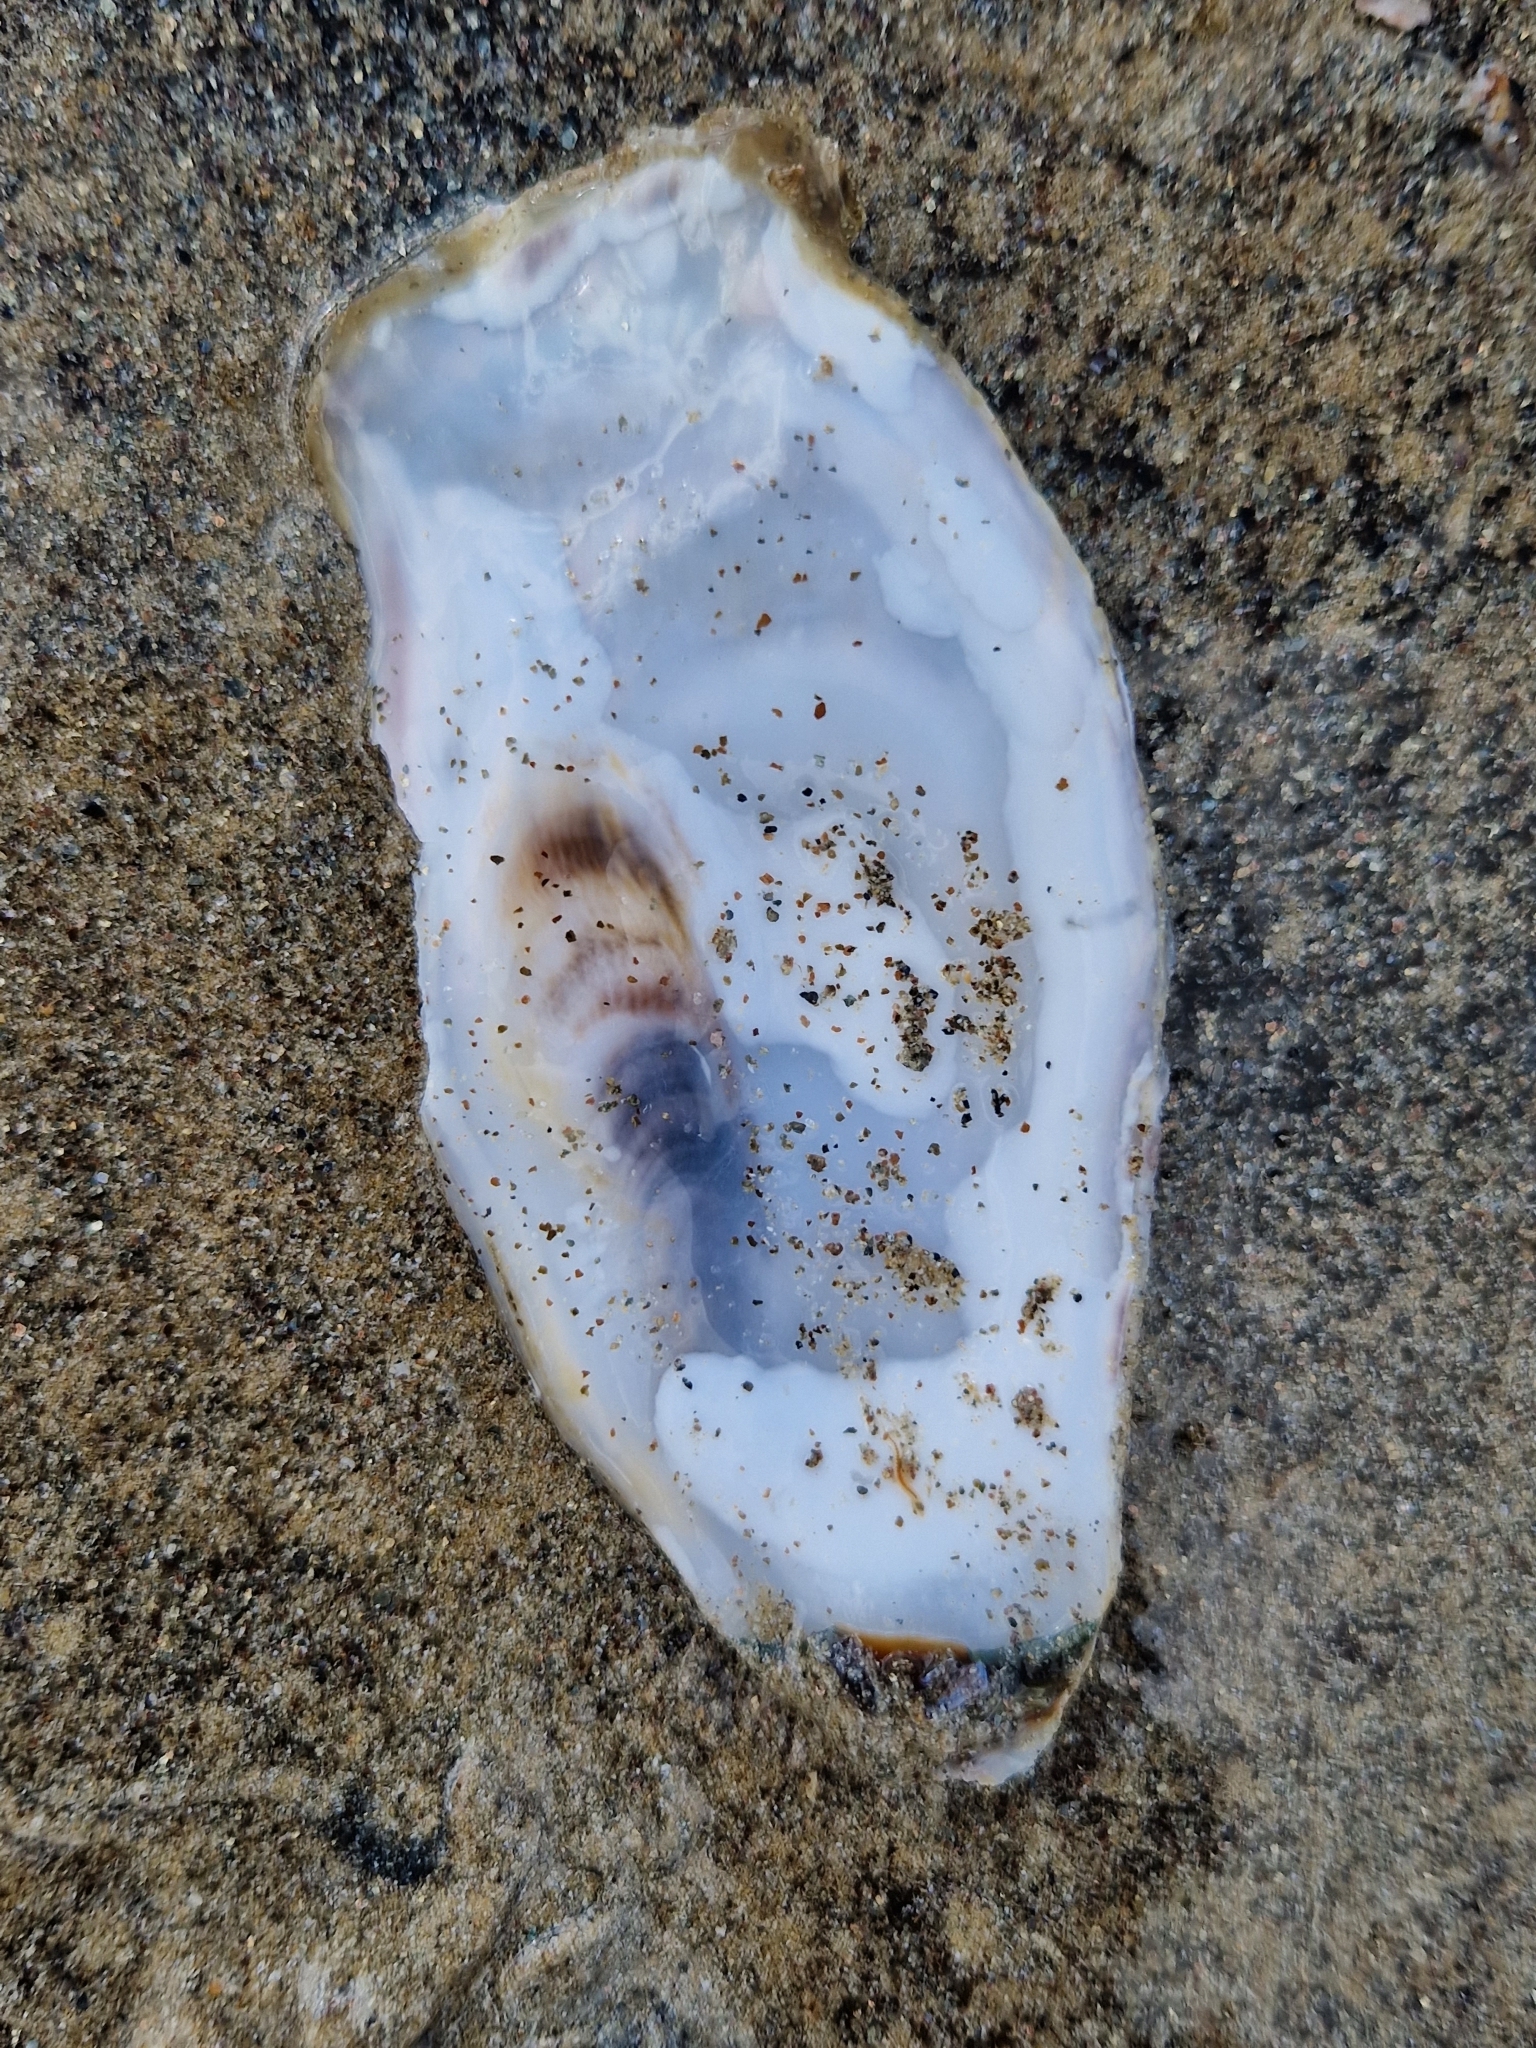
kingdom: Animalia
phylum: Mollusca
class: Bivalvia
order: Ostreida
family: Ostreidae
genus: Magallana
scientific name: Magallana gigas
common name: Pacific oyster
